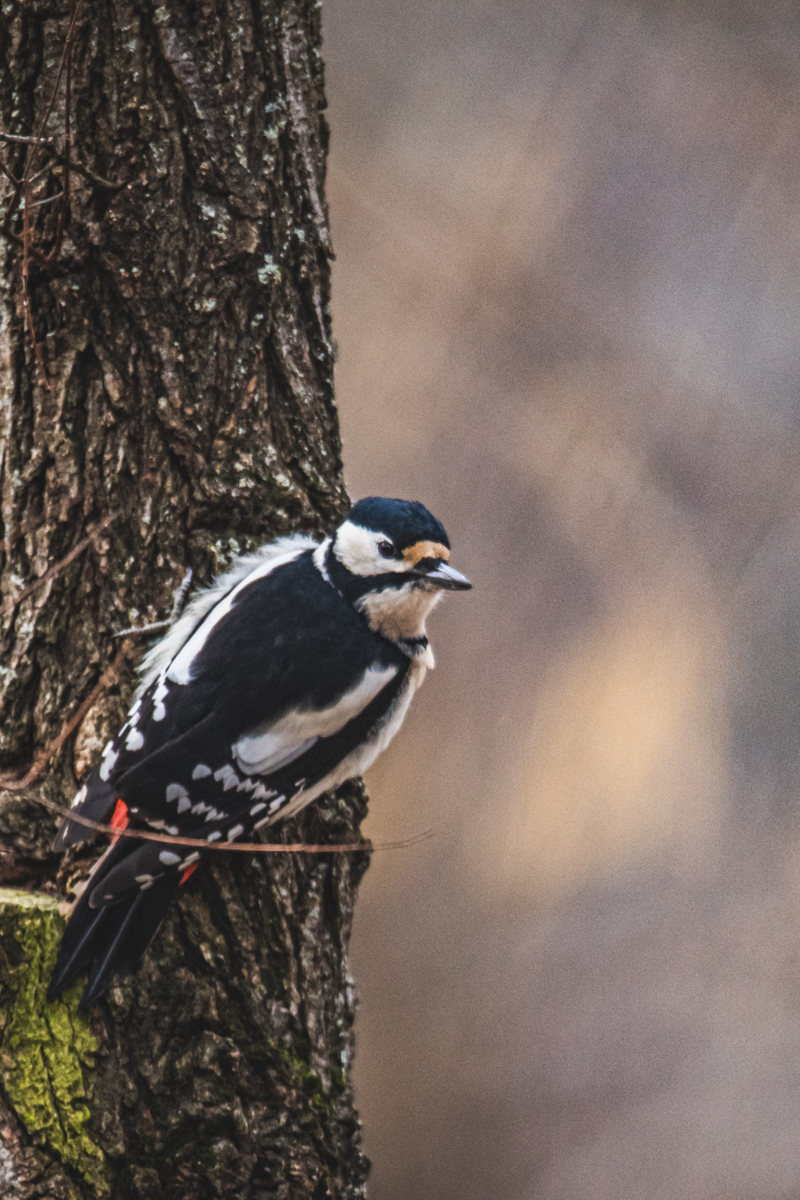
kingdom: Animalia
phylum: Chordata
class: Aves
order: Piciformes
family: Picidae
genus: Dendrocopos
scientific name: Dendrocopos major
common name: Great spotted woodpecker
